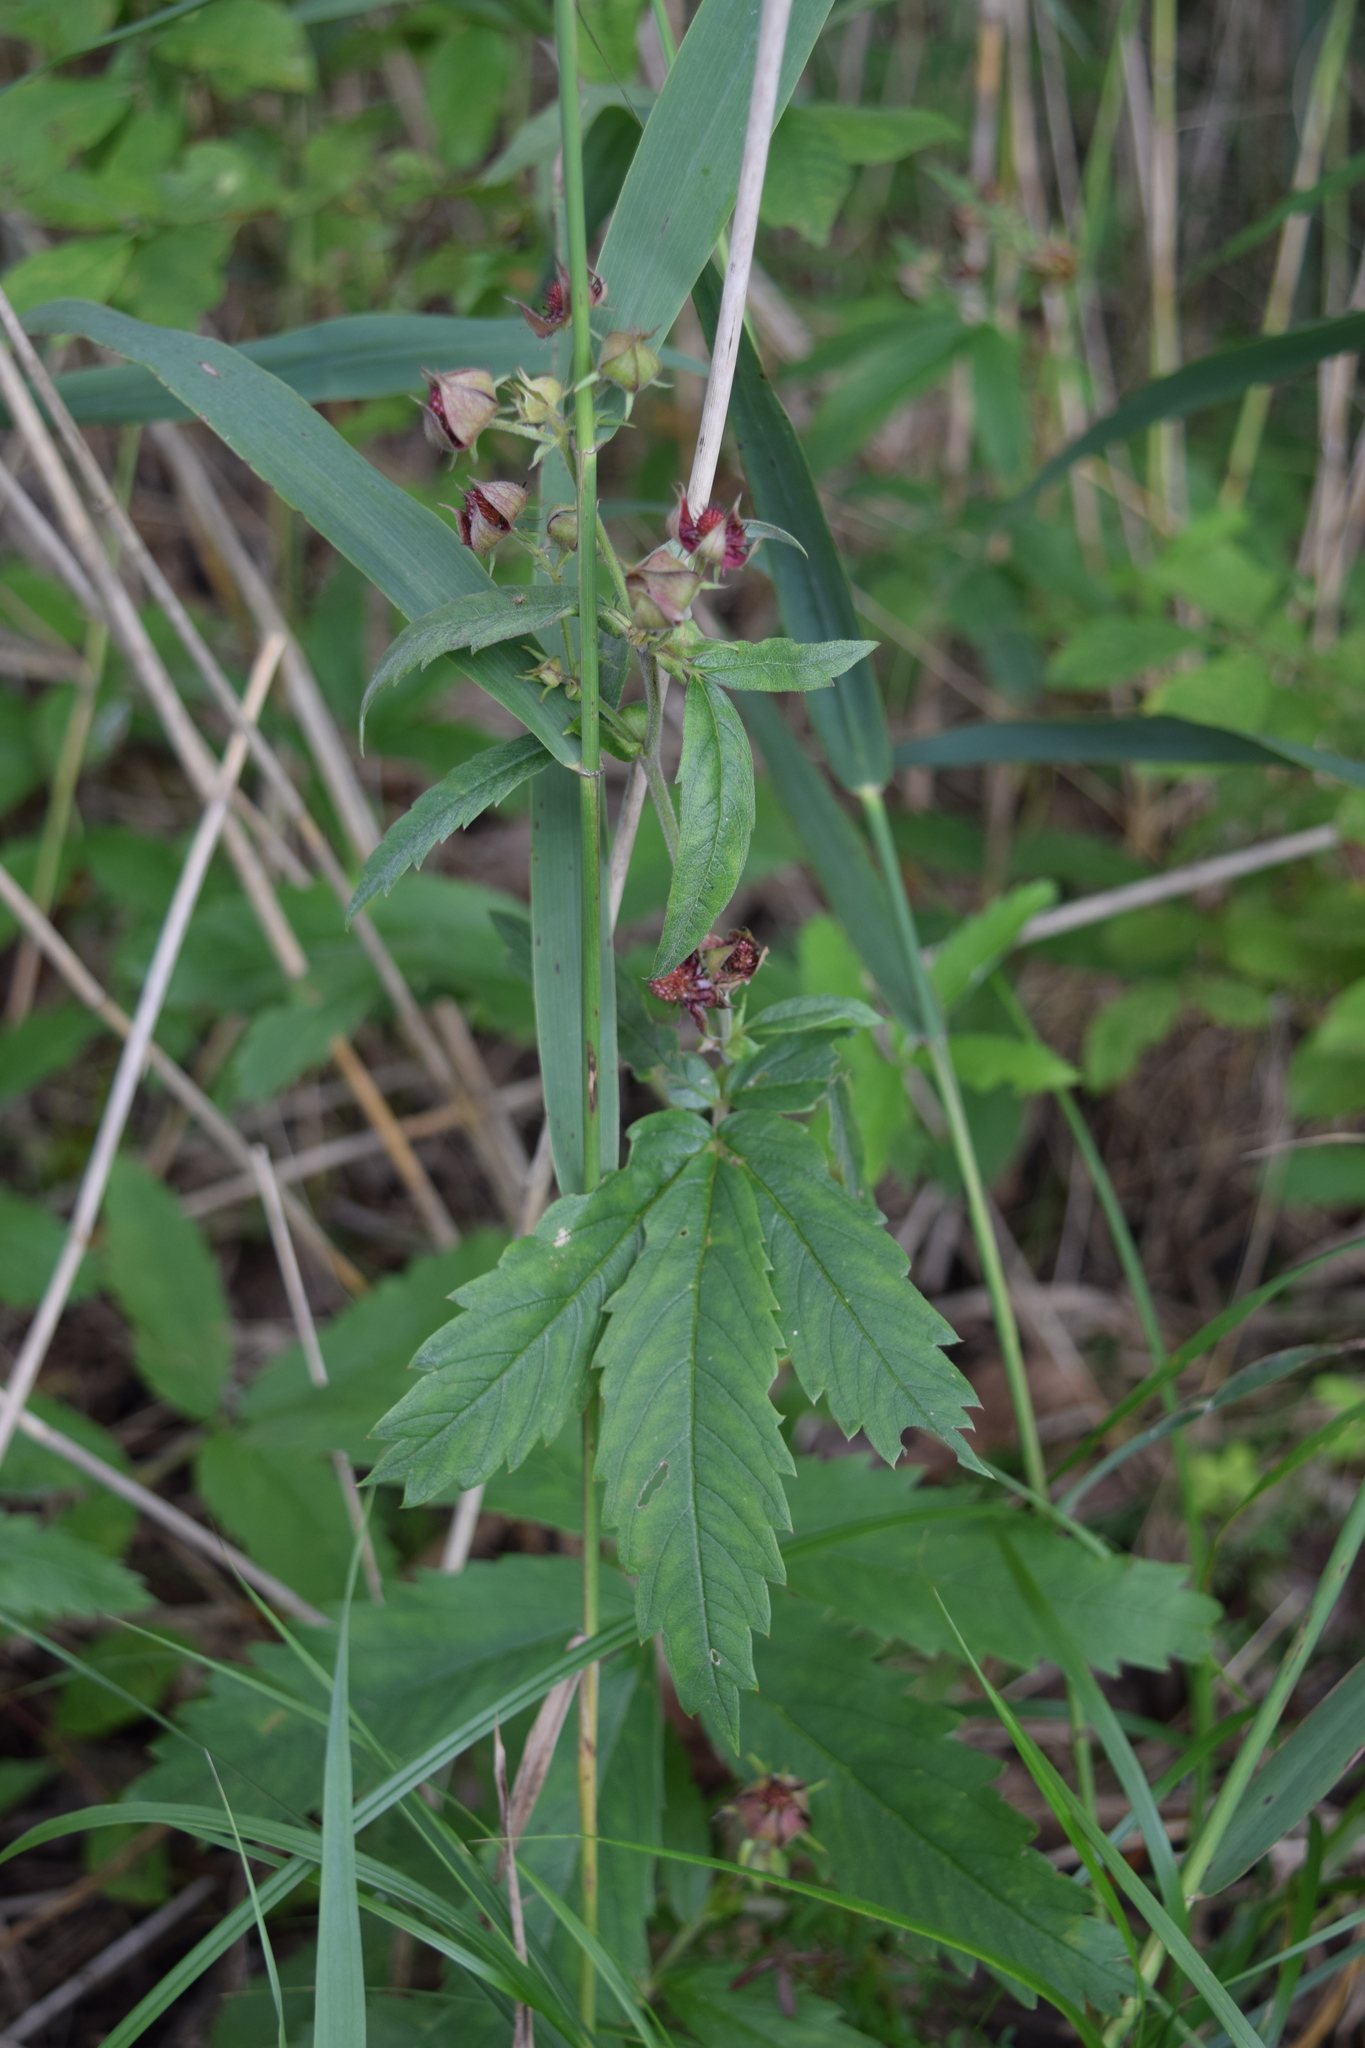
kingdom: Plantae
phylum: Tracheophyta
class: Magnoliopsida
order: Rosales
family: Rosaceae
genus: Comarum
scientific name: Comarum palustre
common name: Marsh cinquefoil
